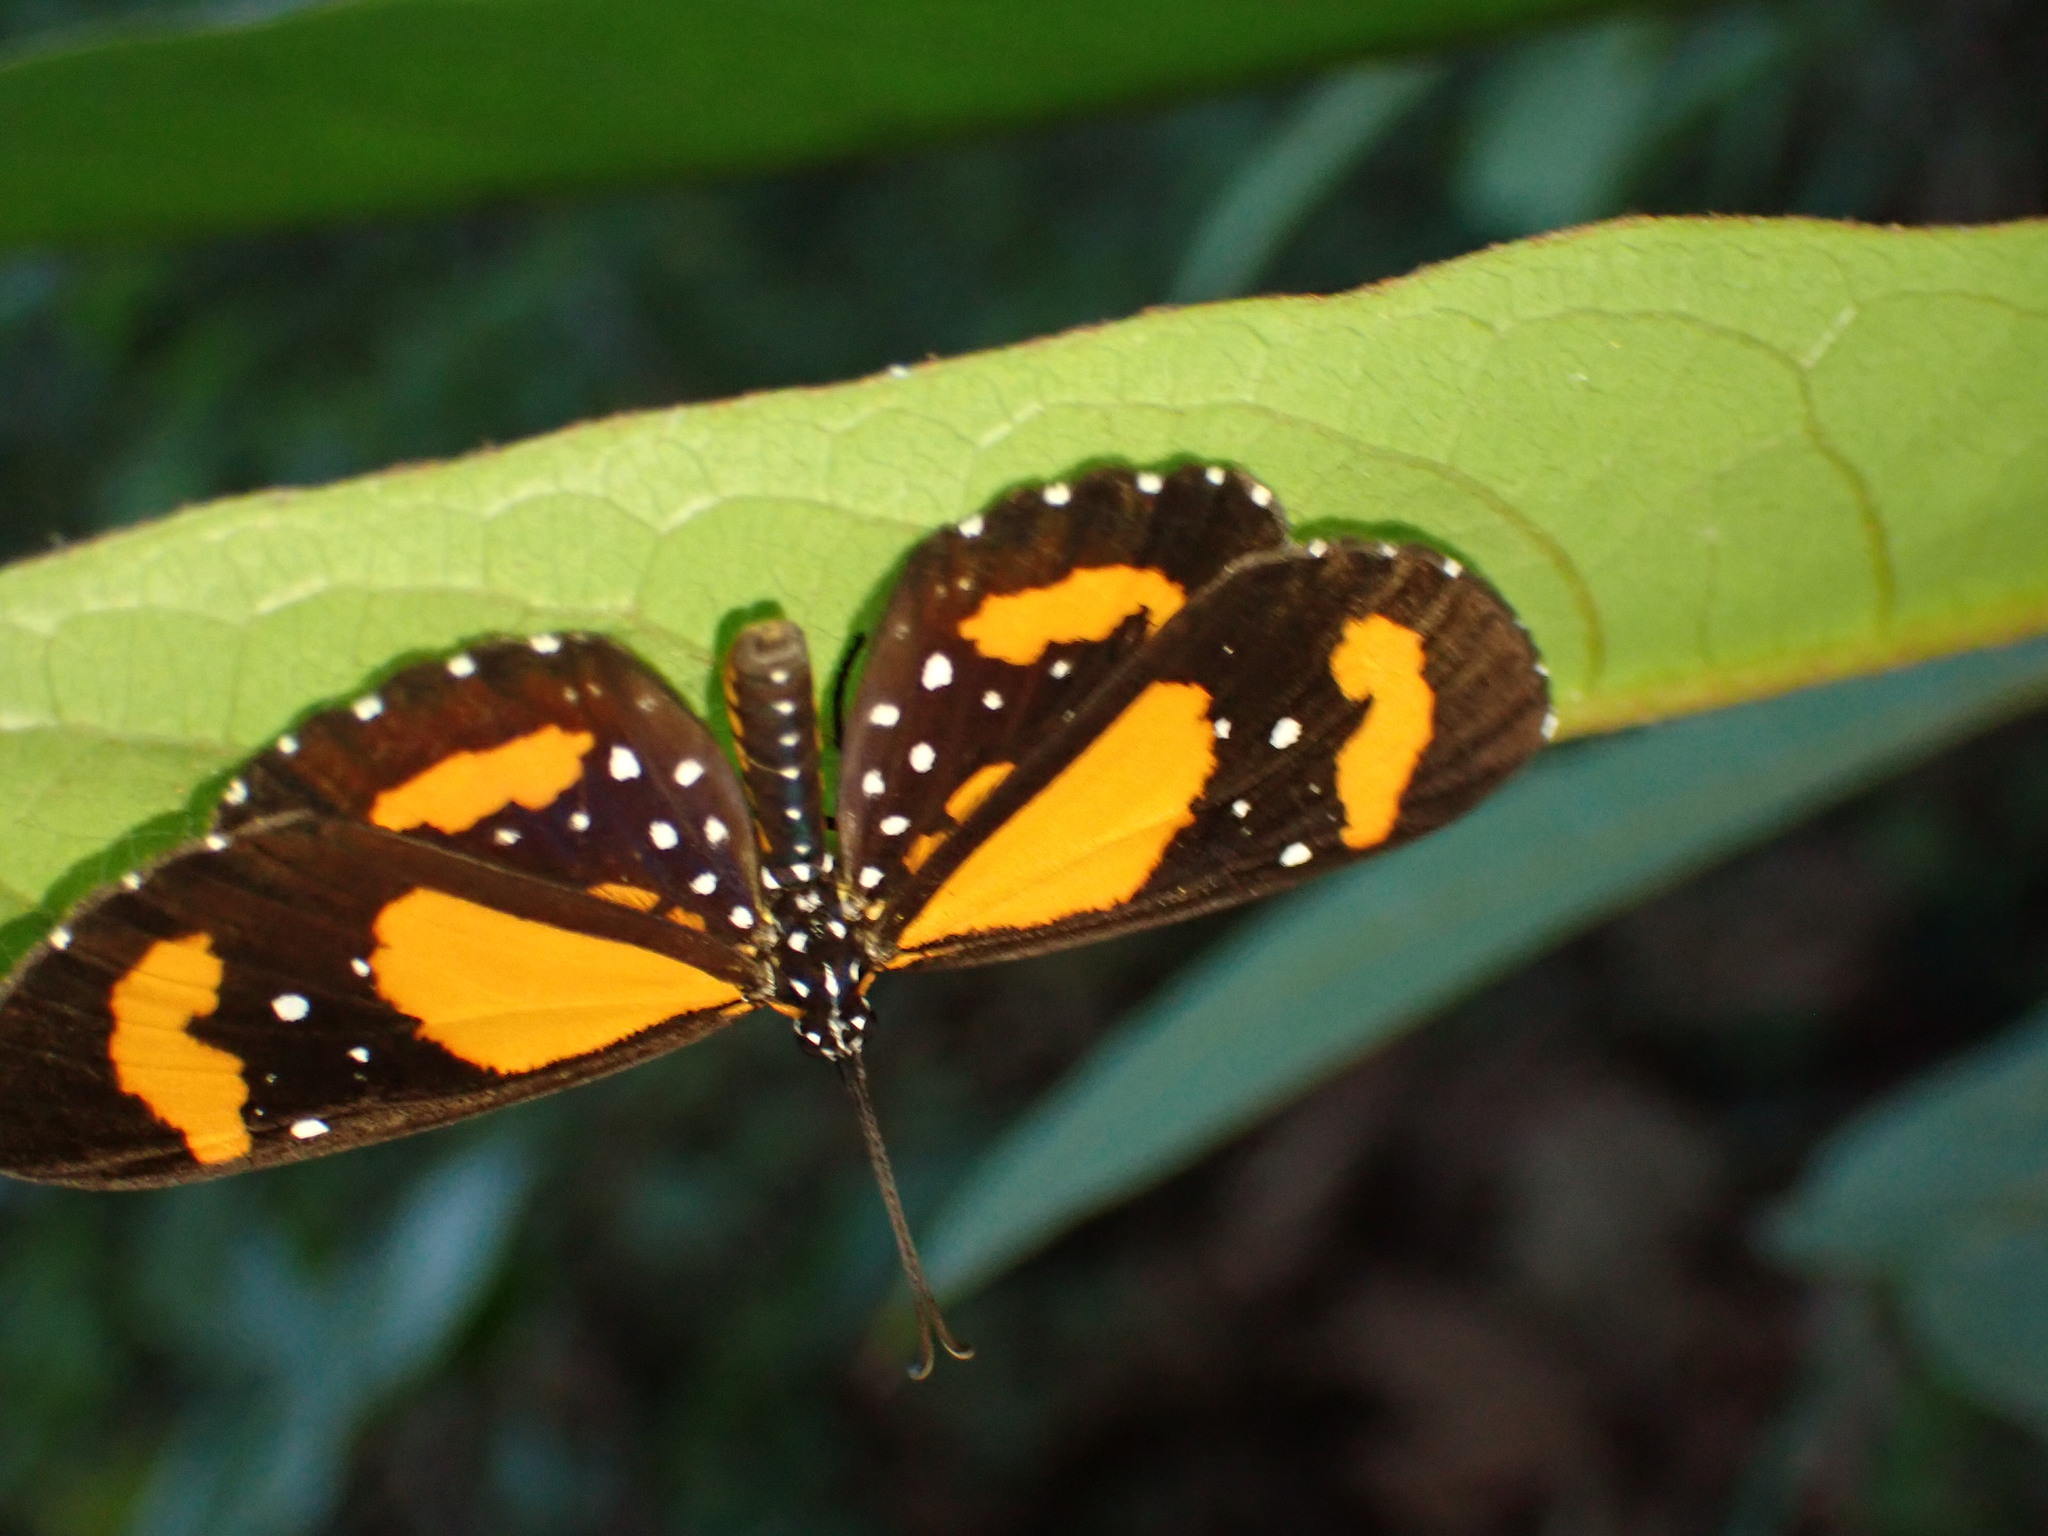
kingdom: Animalia
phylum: Arthropoda
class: Insecta
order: Lepidoptera
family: Riodinidae
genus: Stalachtis
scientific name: Stalachtis susanna
